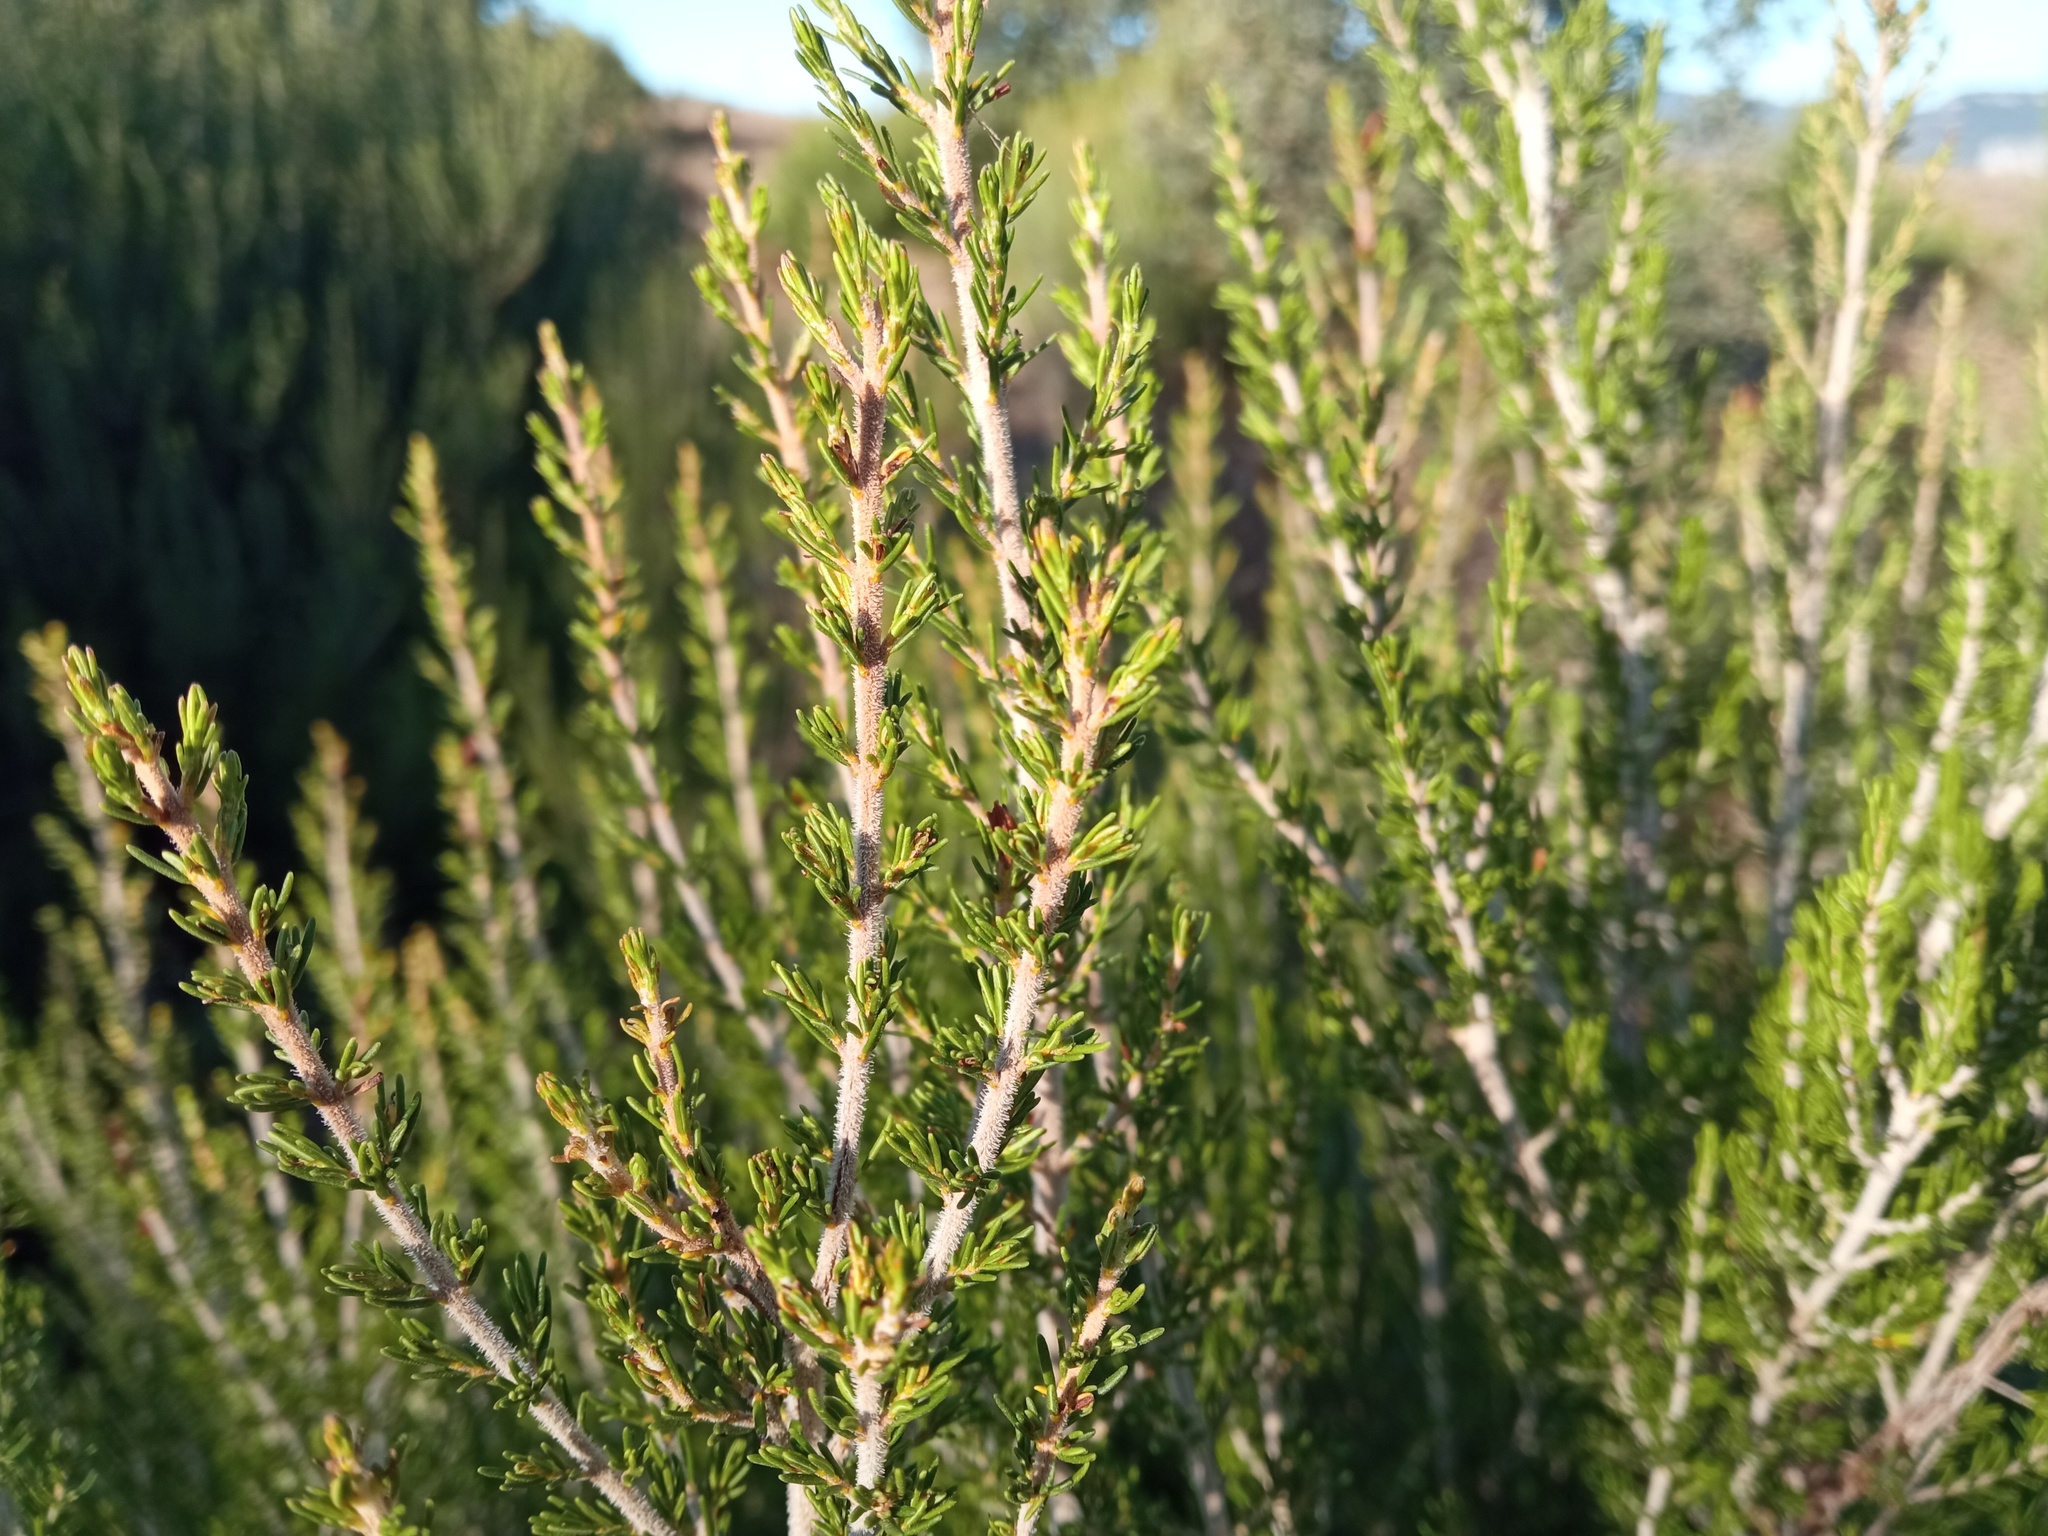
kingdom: Plantae
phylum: Tracheophyta
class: Magnoliopsida
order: Ericales
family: Ericaceae
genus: Erica
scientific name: Erica arborea
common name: Tree heath
